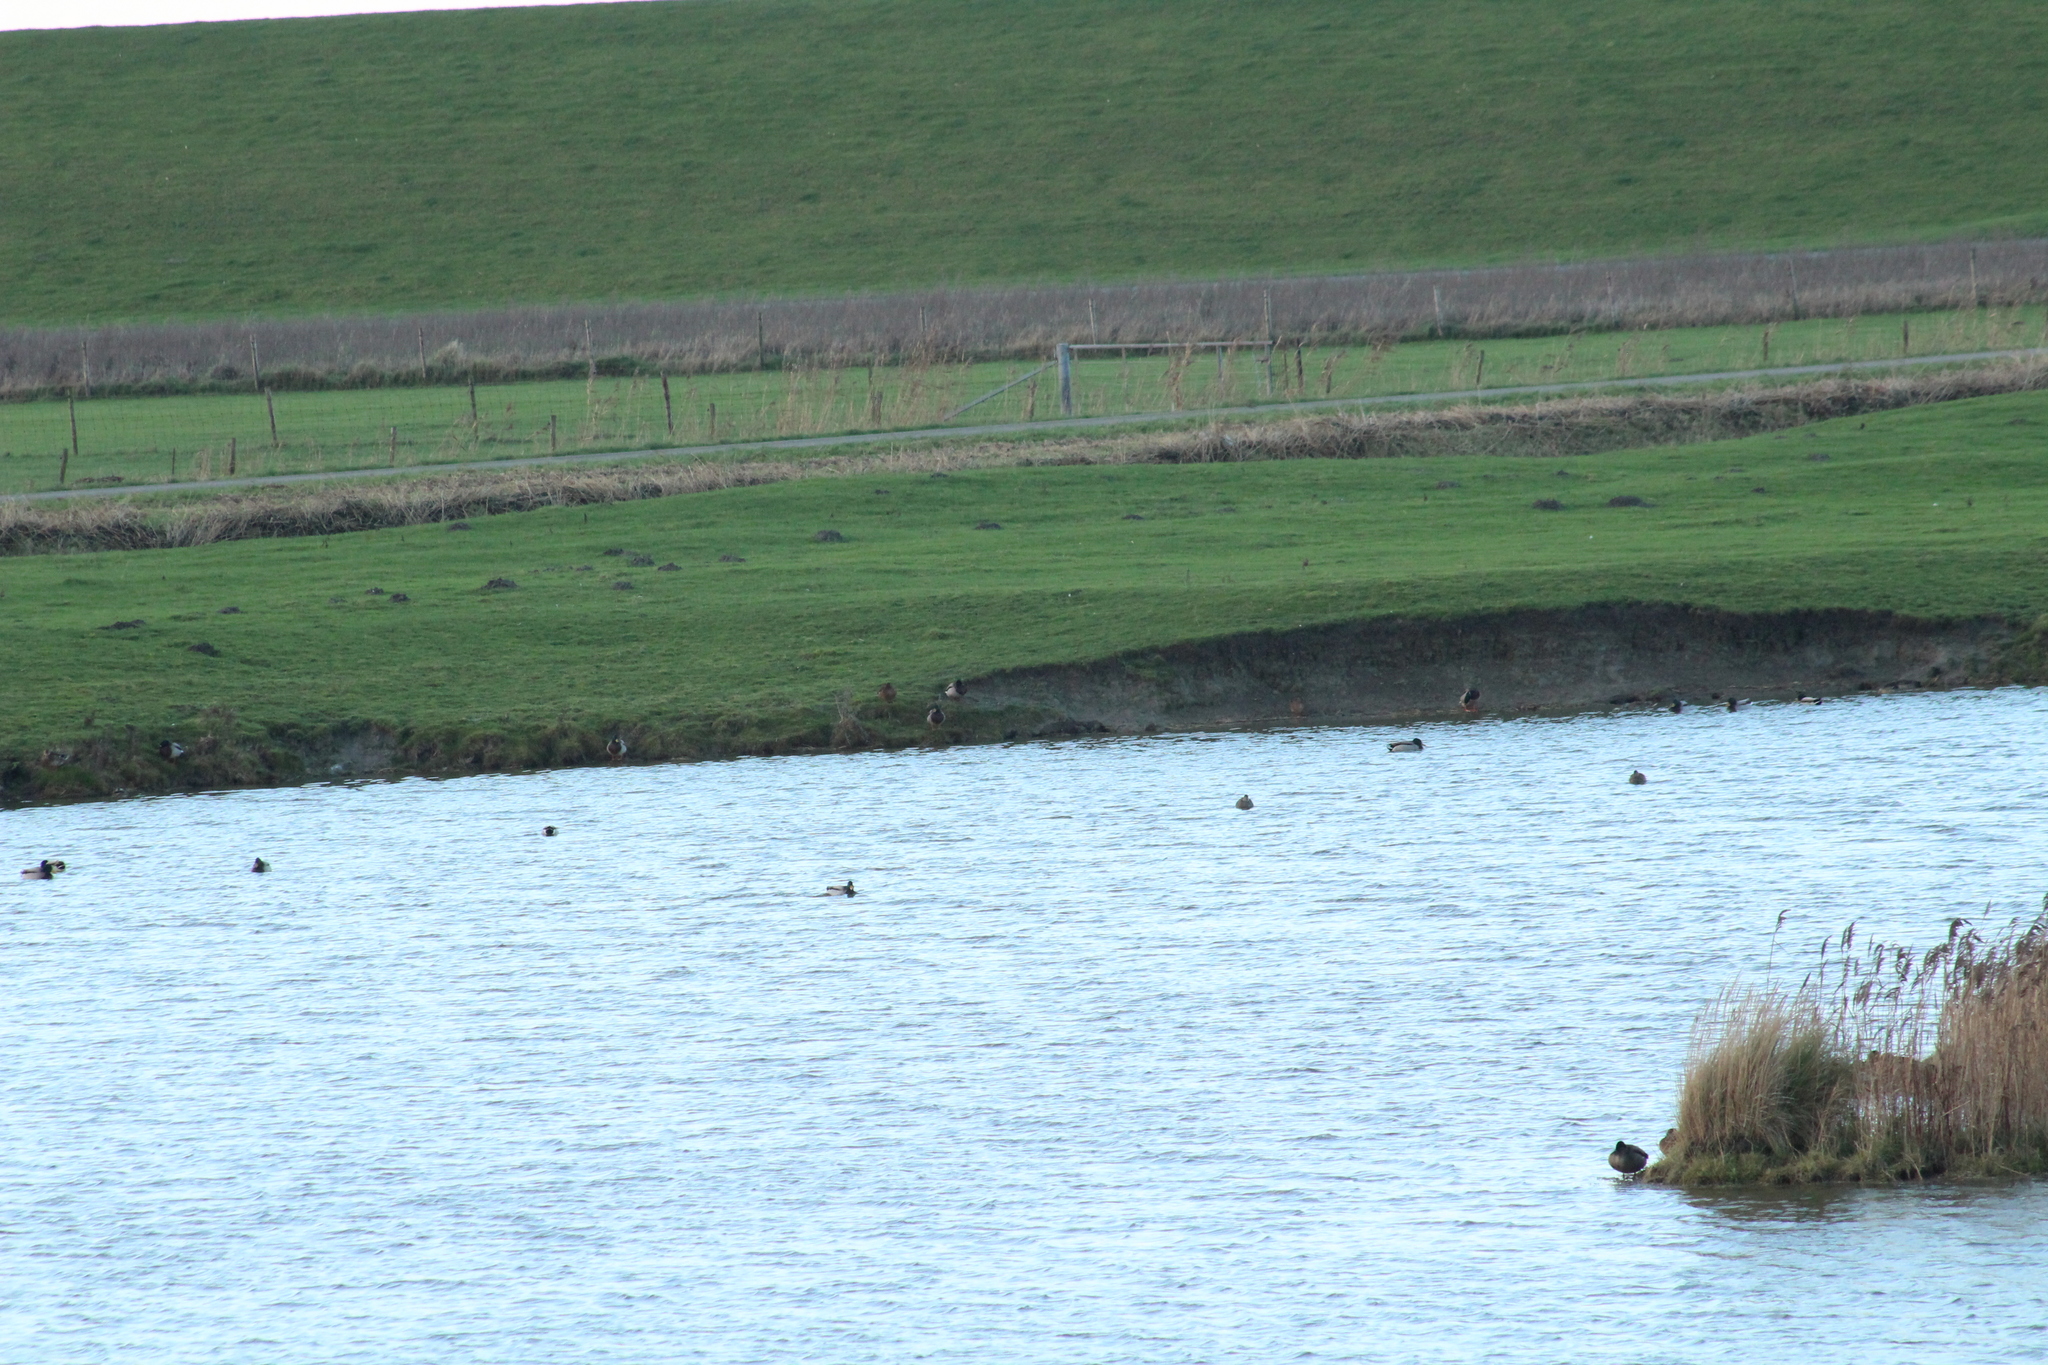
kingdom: Animalia
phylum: Chordata
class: Aves
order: Anseriformes
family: Anatidae
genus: Anas
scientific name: Anas platyrhynchos
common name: Mallard
